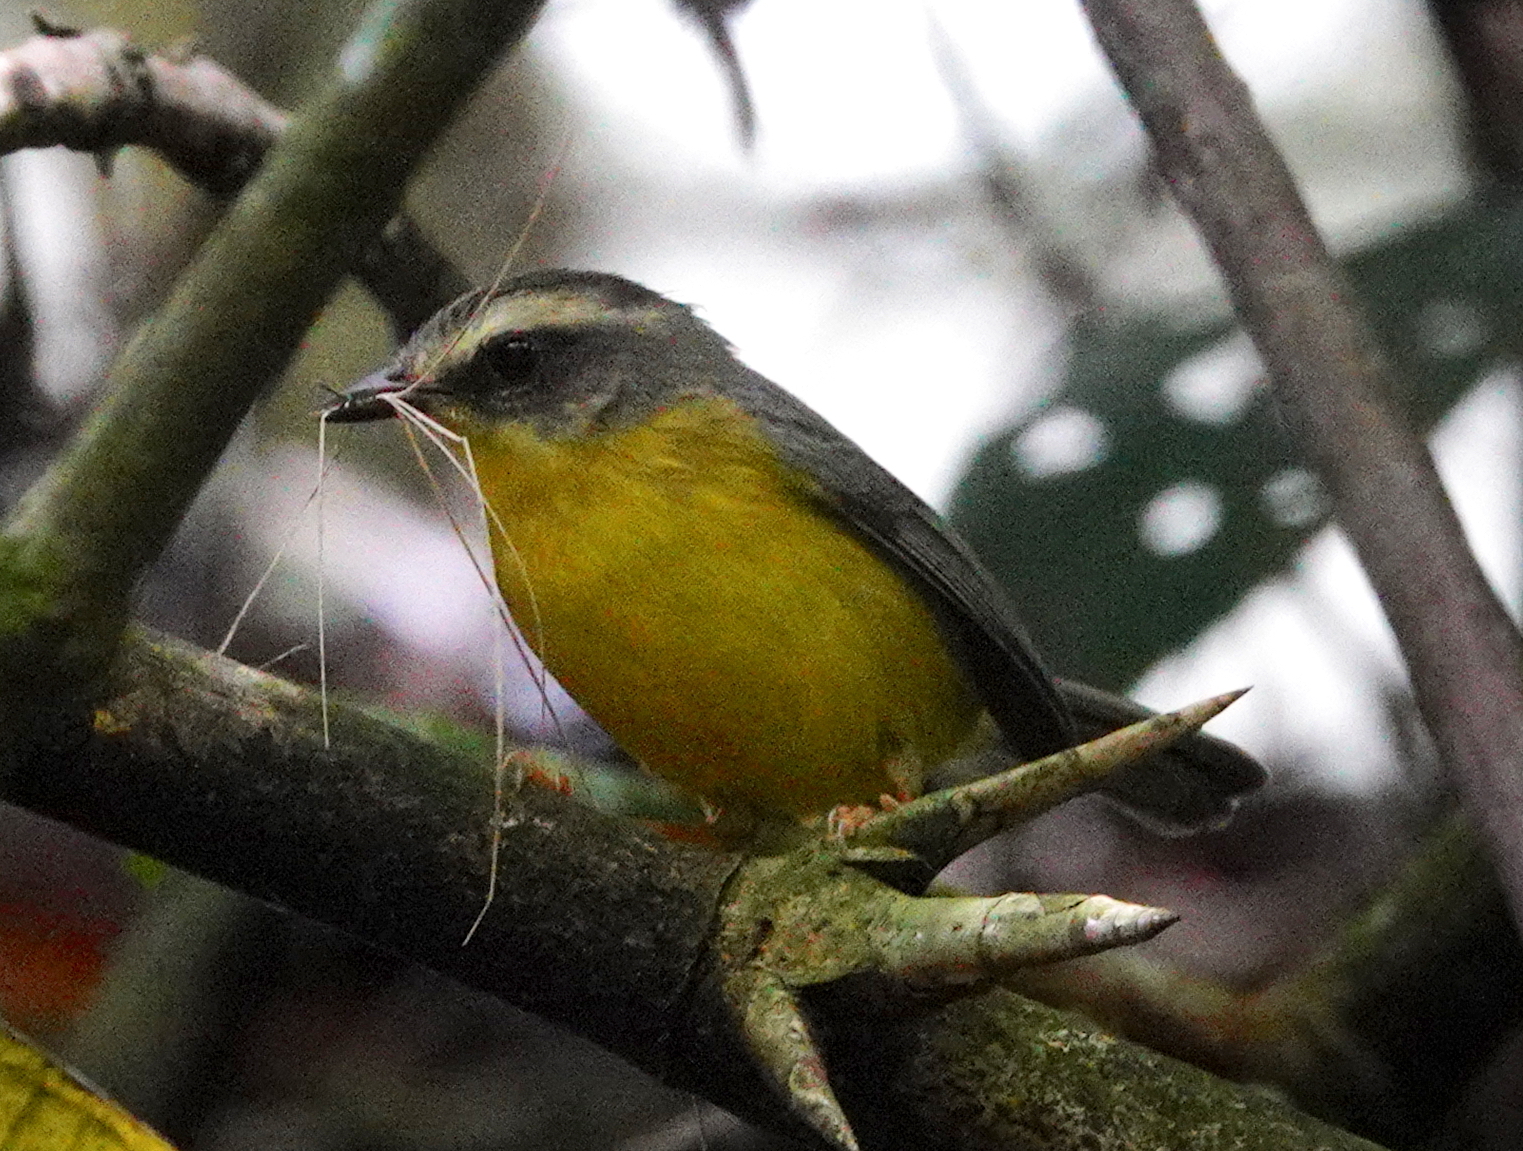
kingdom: Animalia
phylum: Chordata
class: Aves
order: Passeriformes
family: Parulidae
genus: Basileuterus
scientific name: Basileuterus culicivorus
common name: Golden-crowned warbler
